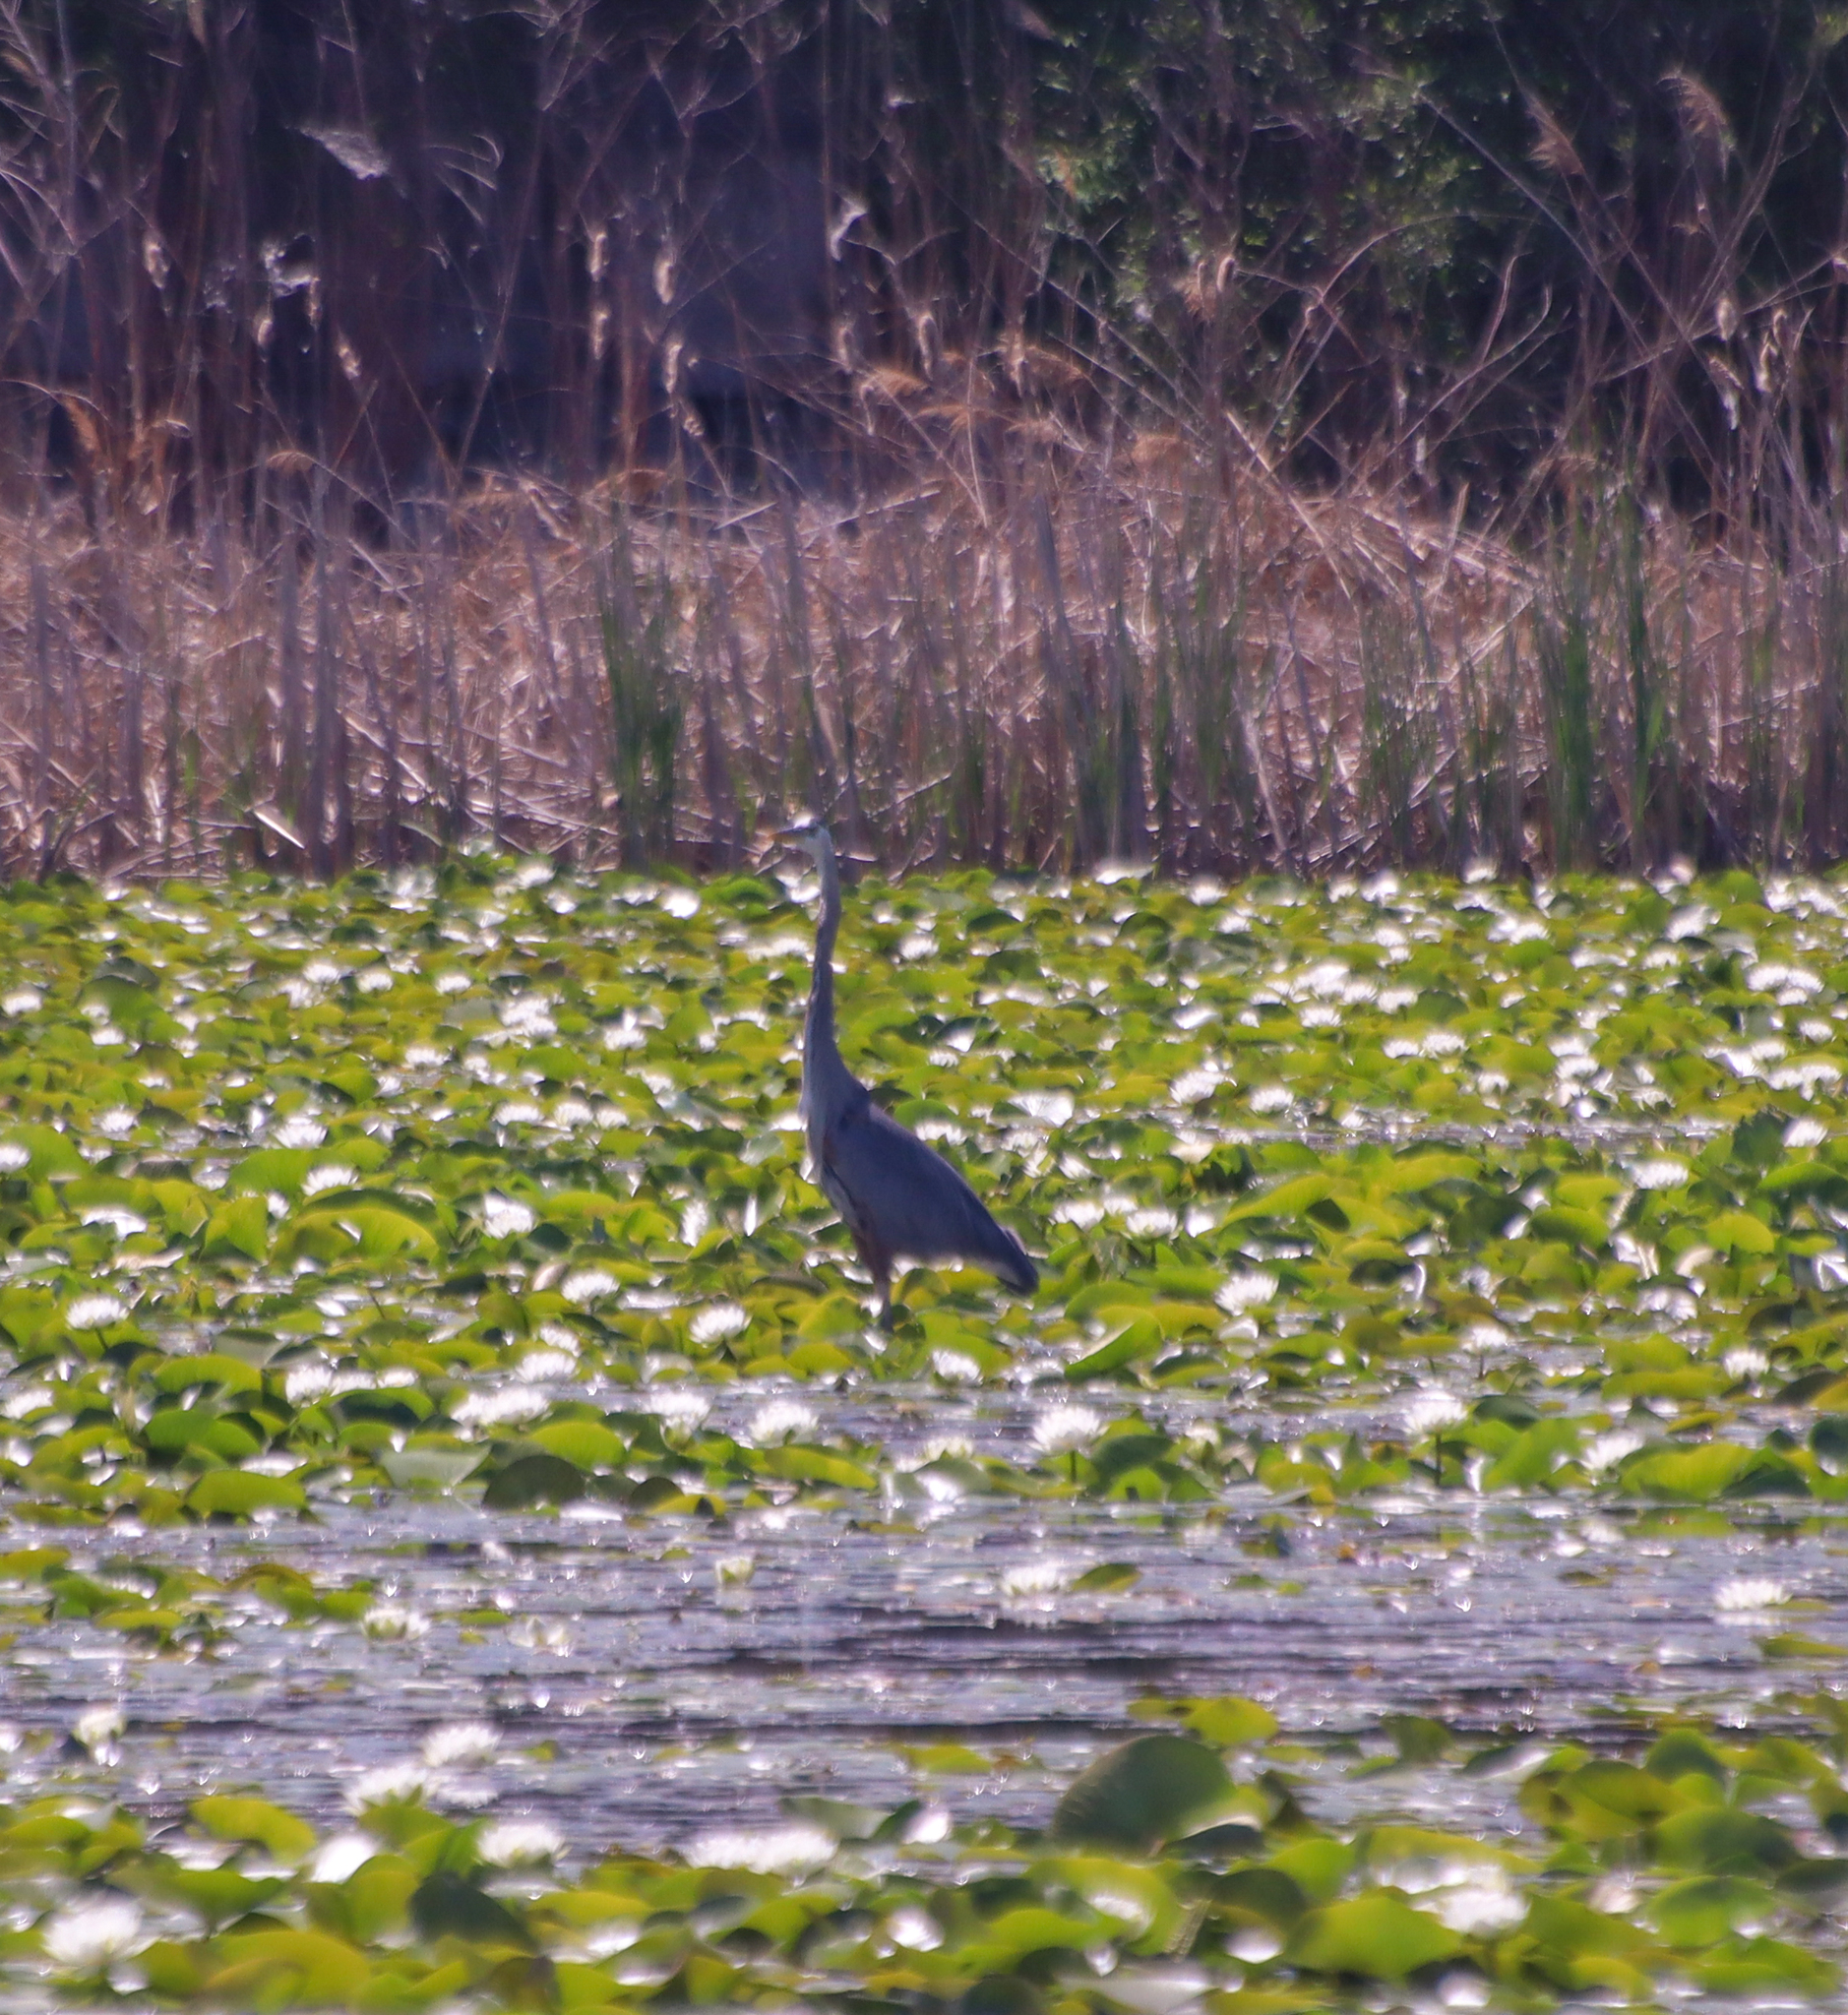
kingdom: Animalia
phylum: Chordata
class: Aves
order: Pelecaniformes
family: Ardeidae
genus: Ardea
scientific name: Ardea herodias
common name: Great blue heron
